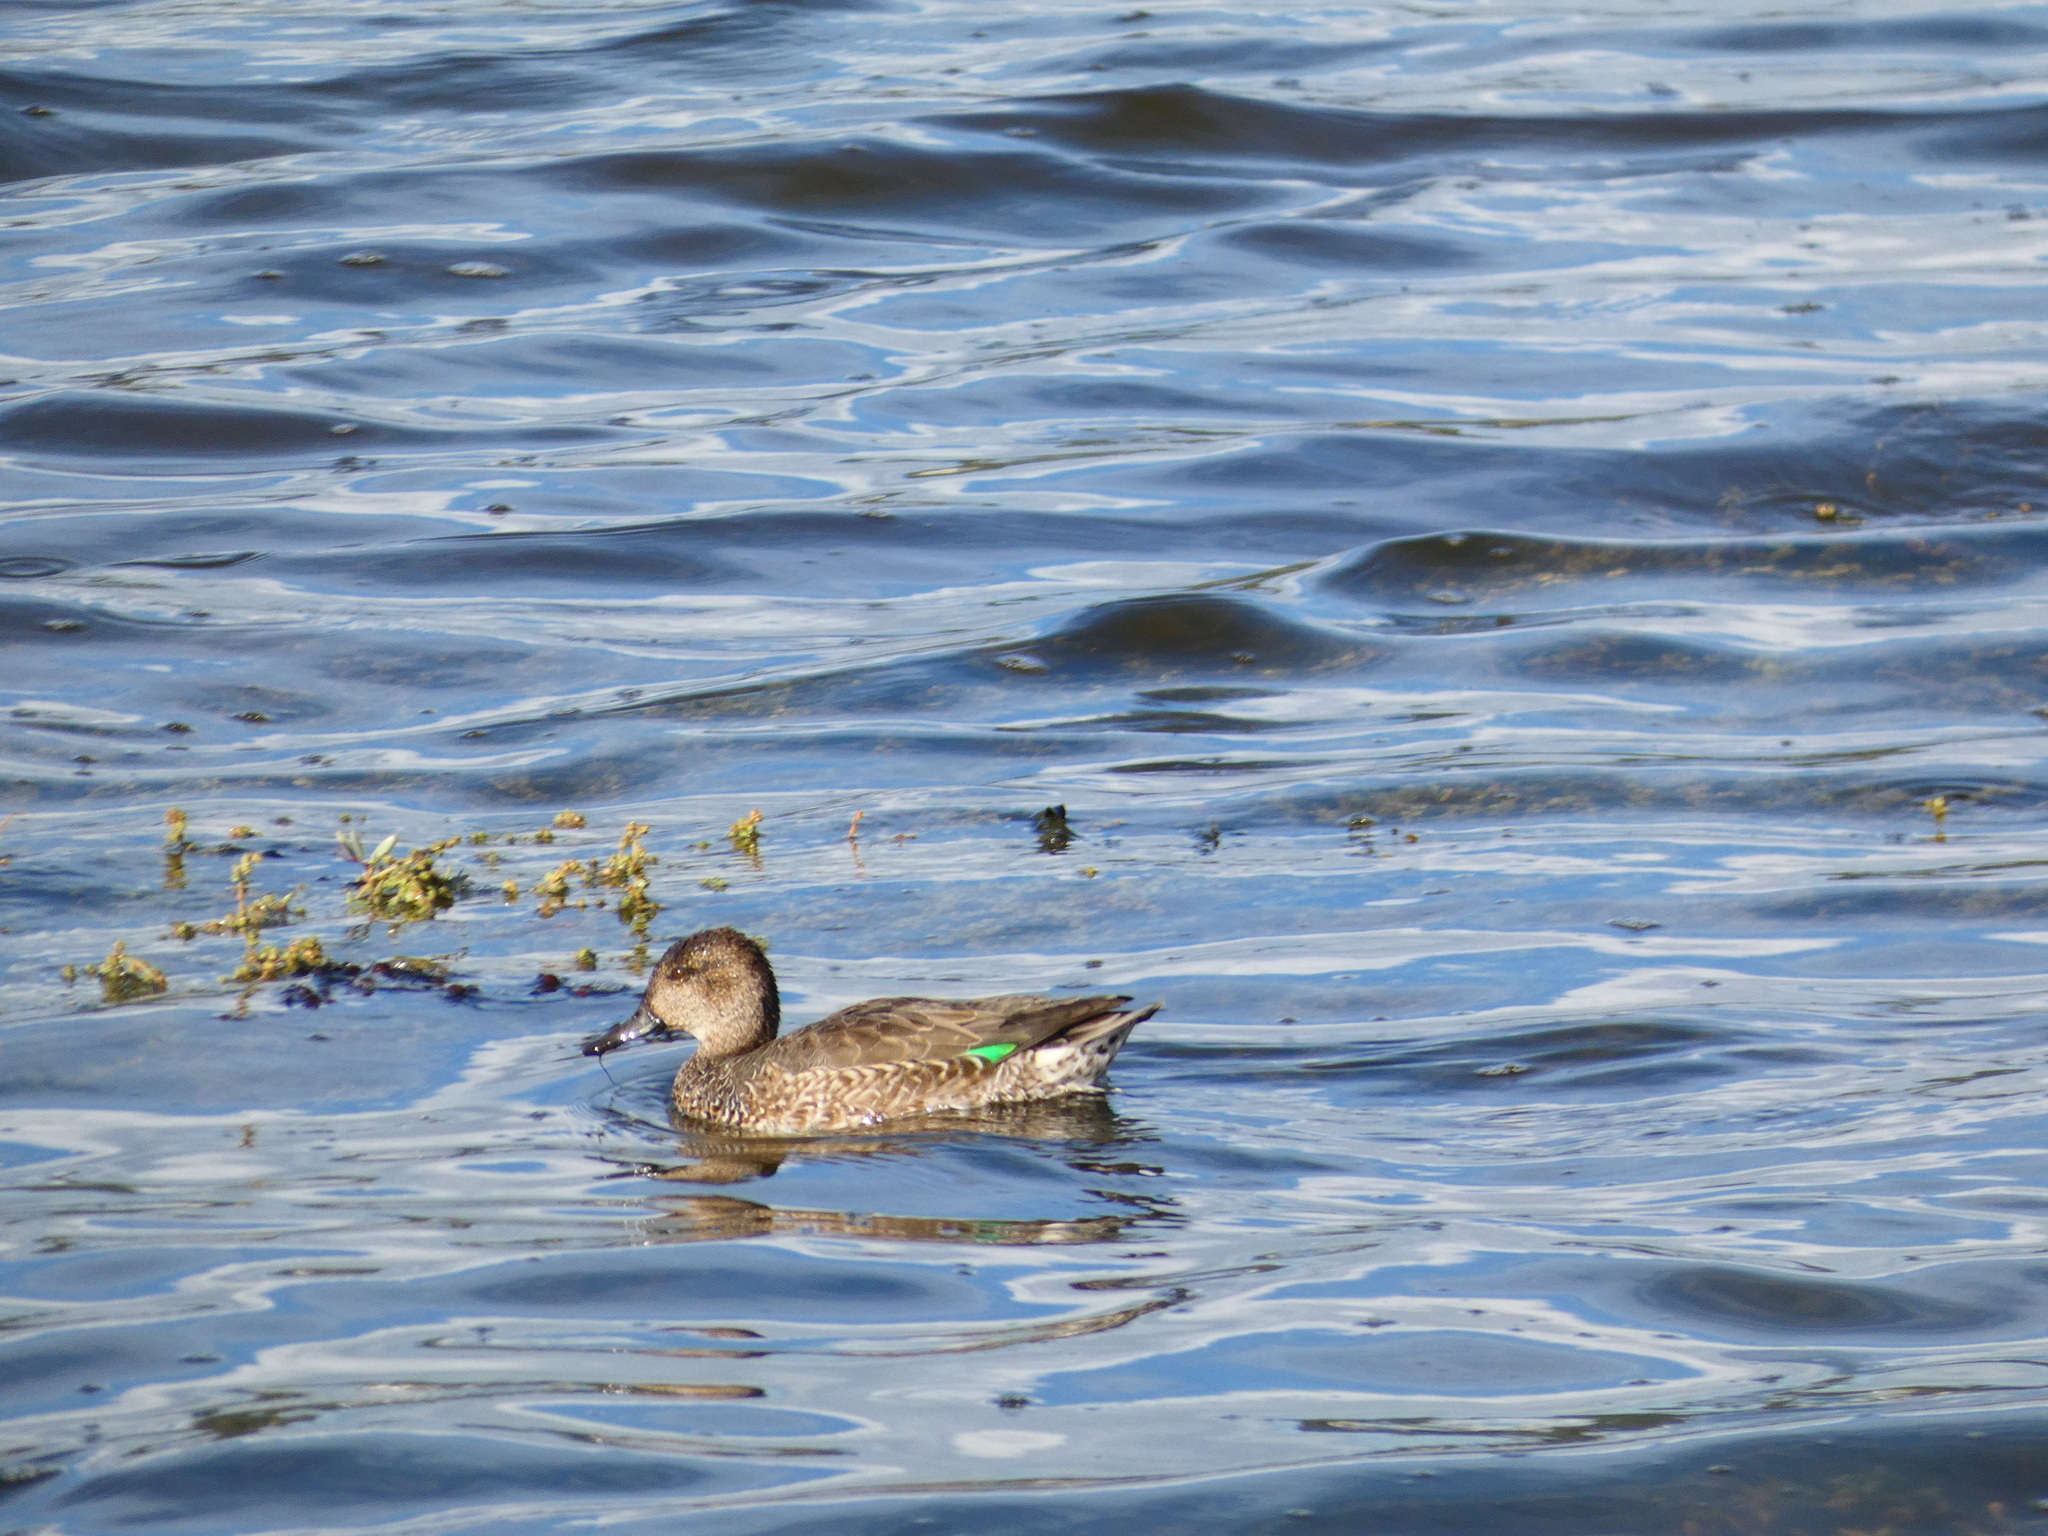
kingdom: Animalia
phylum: Chordata
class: Aves
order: Anseriformes
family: Anatidae
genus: Anas
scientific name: Anas crecca
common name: Eurasian teal
